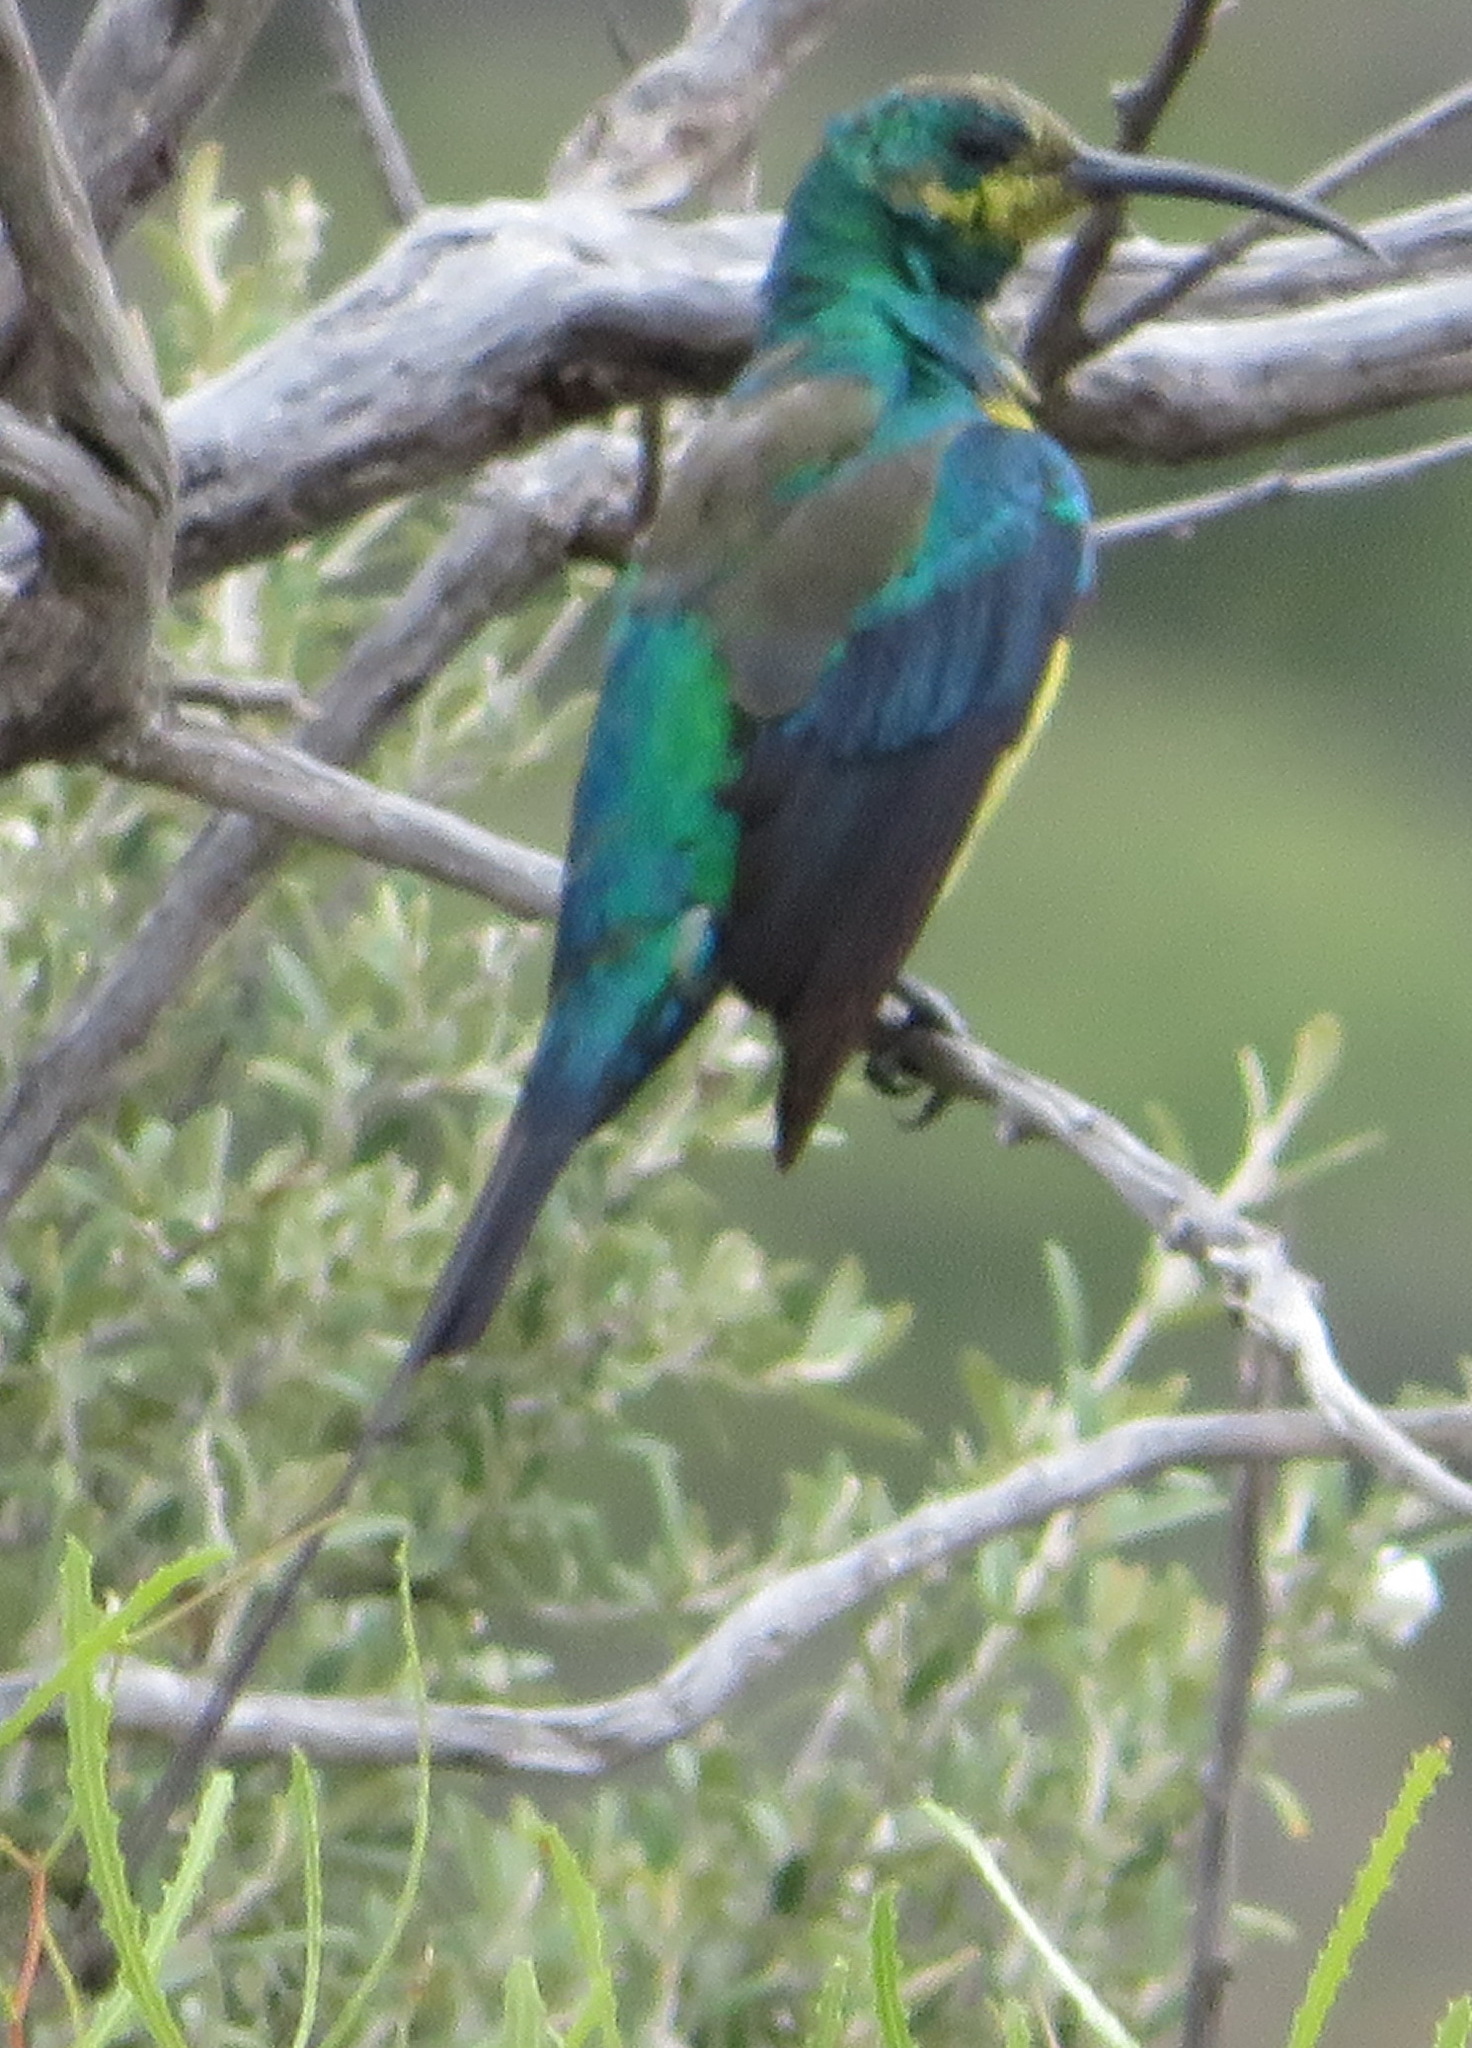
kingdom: Animalia
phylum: Chordata
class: Aves
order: Passeriformes
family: Nectariniidae
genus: Nectarinia
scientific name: Nectarinia famosa
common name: Malachite sunbird
